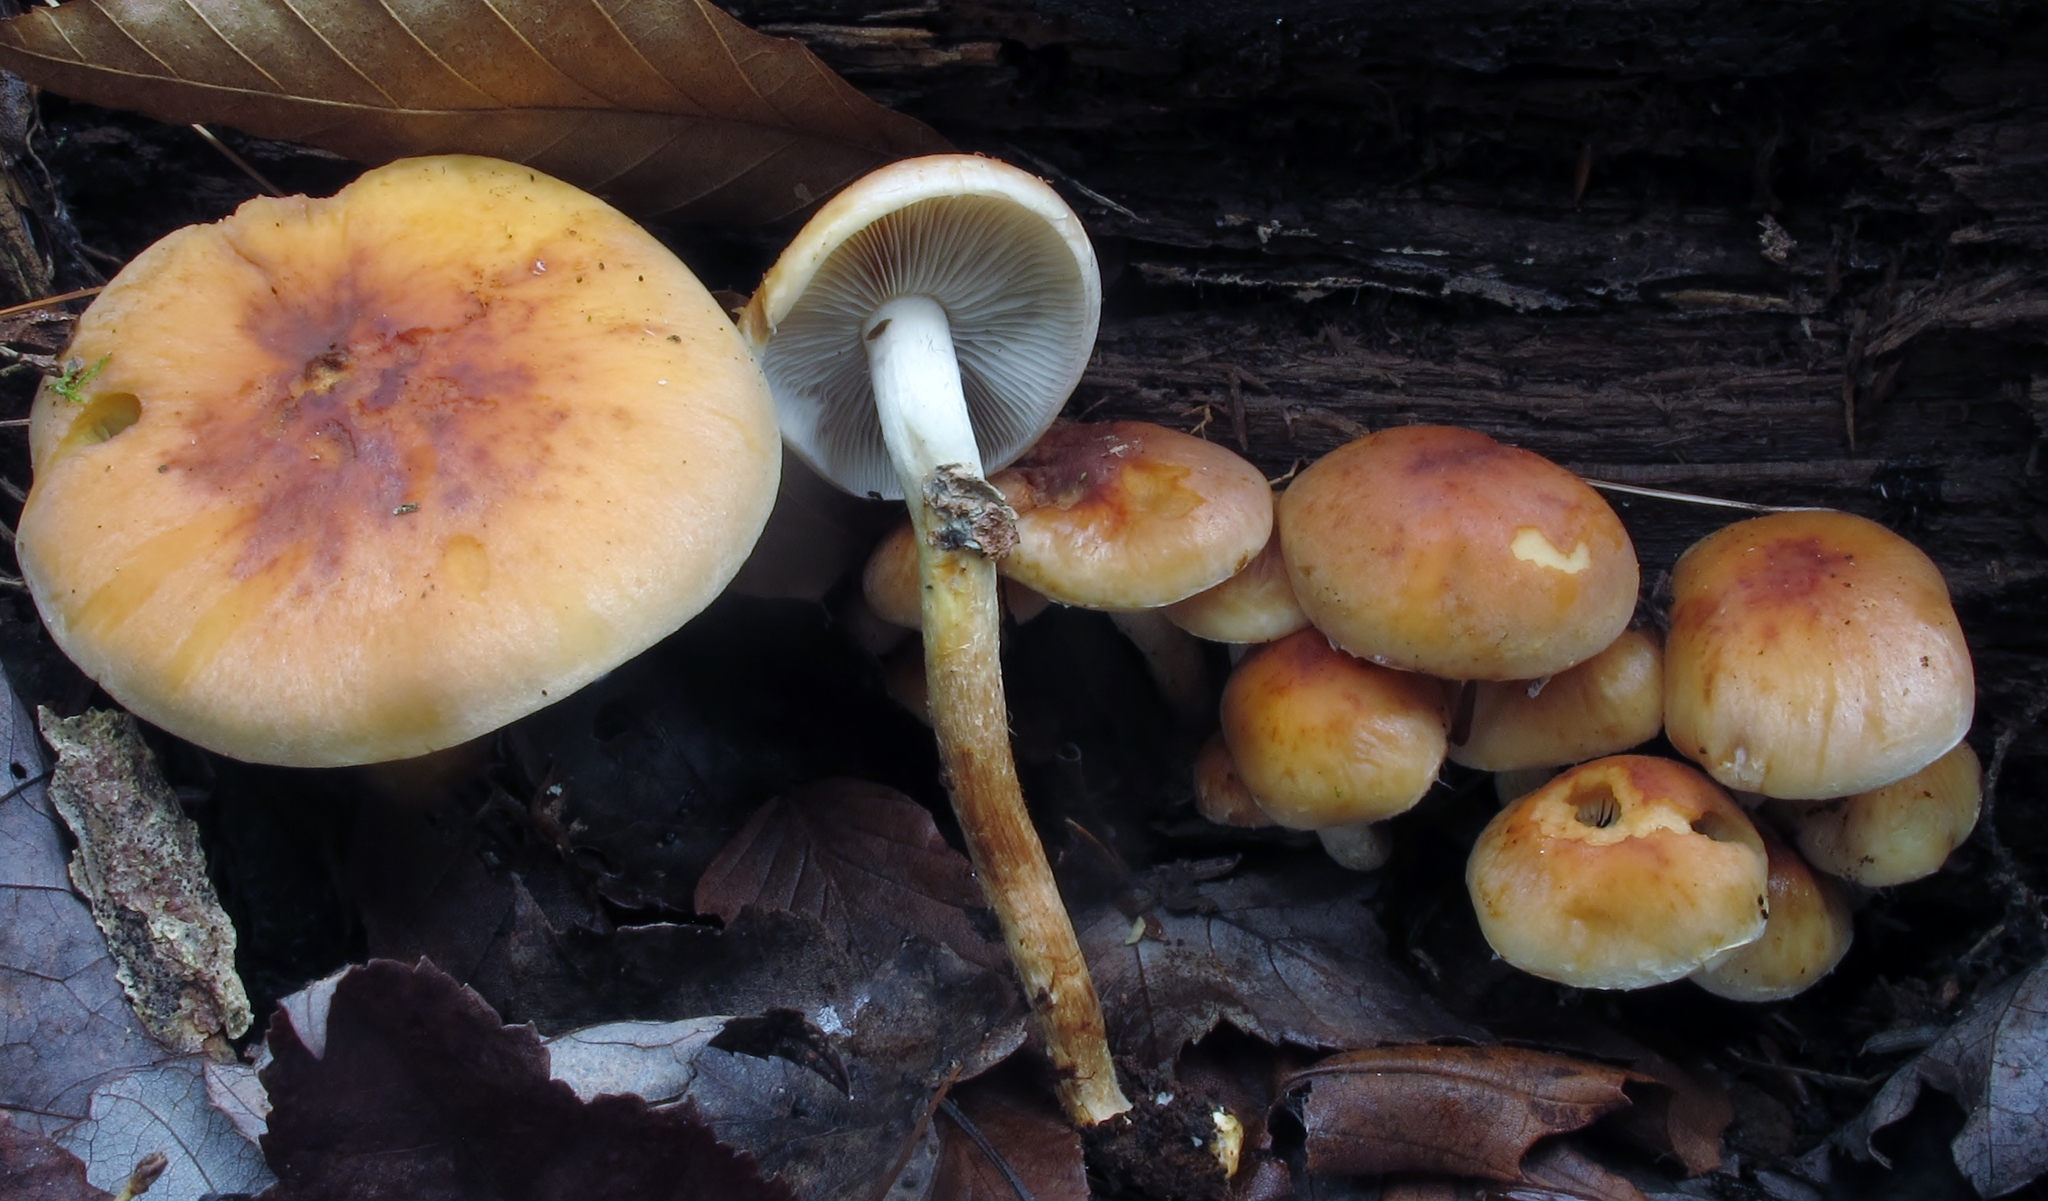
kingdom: Fungi
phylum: Basidiomycota
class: Agaricomycetes
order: Agaricales
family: Strophariaceae
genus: Hypholoma
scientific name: Hypholoma lateritium
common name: Brick caps
